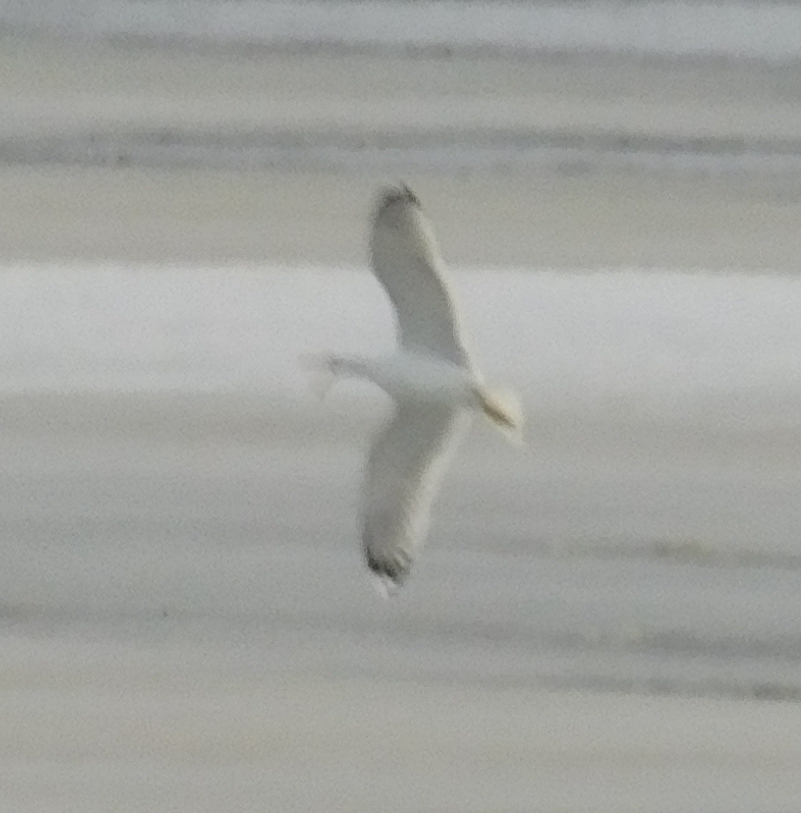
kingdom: Animalia
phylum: Chordata
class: Aves
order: Charadriiformes
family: Laridae
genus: Larus
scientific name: Larus fuscus
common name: Lesser black-backed gull
